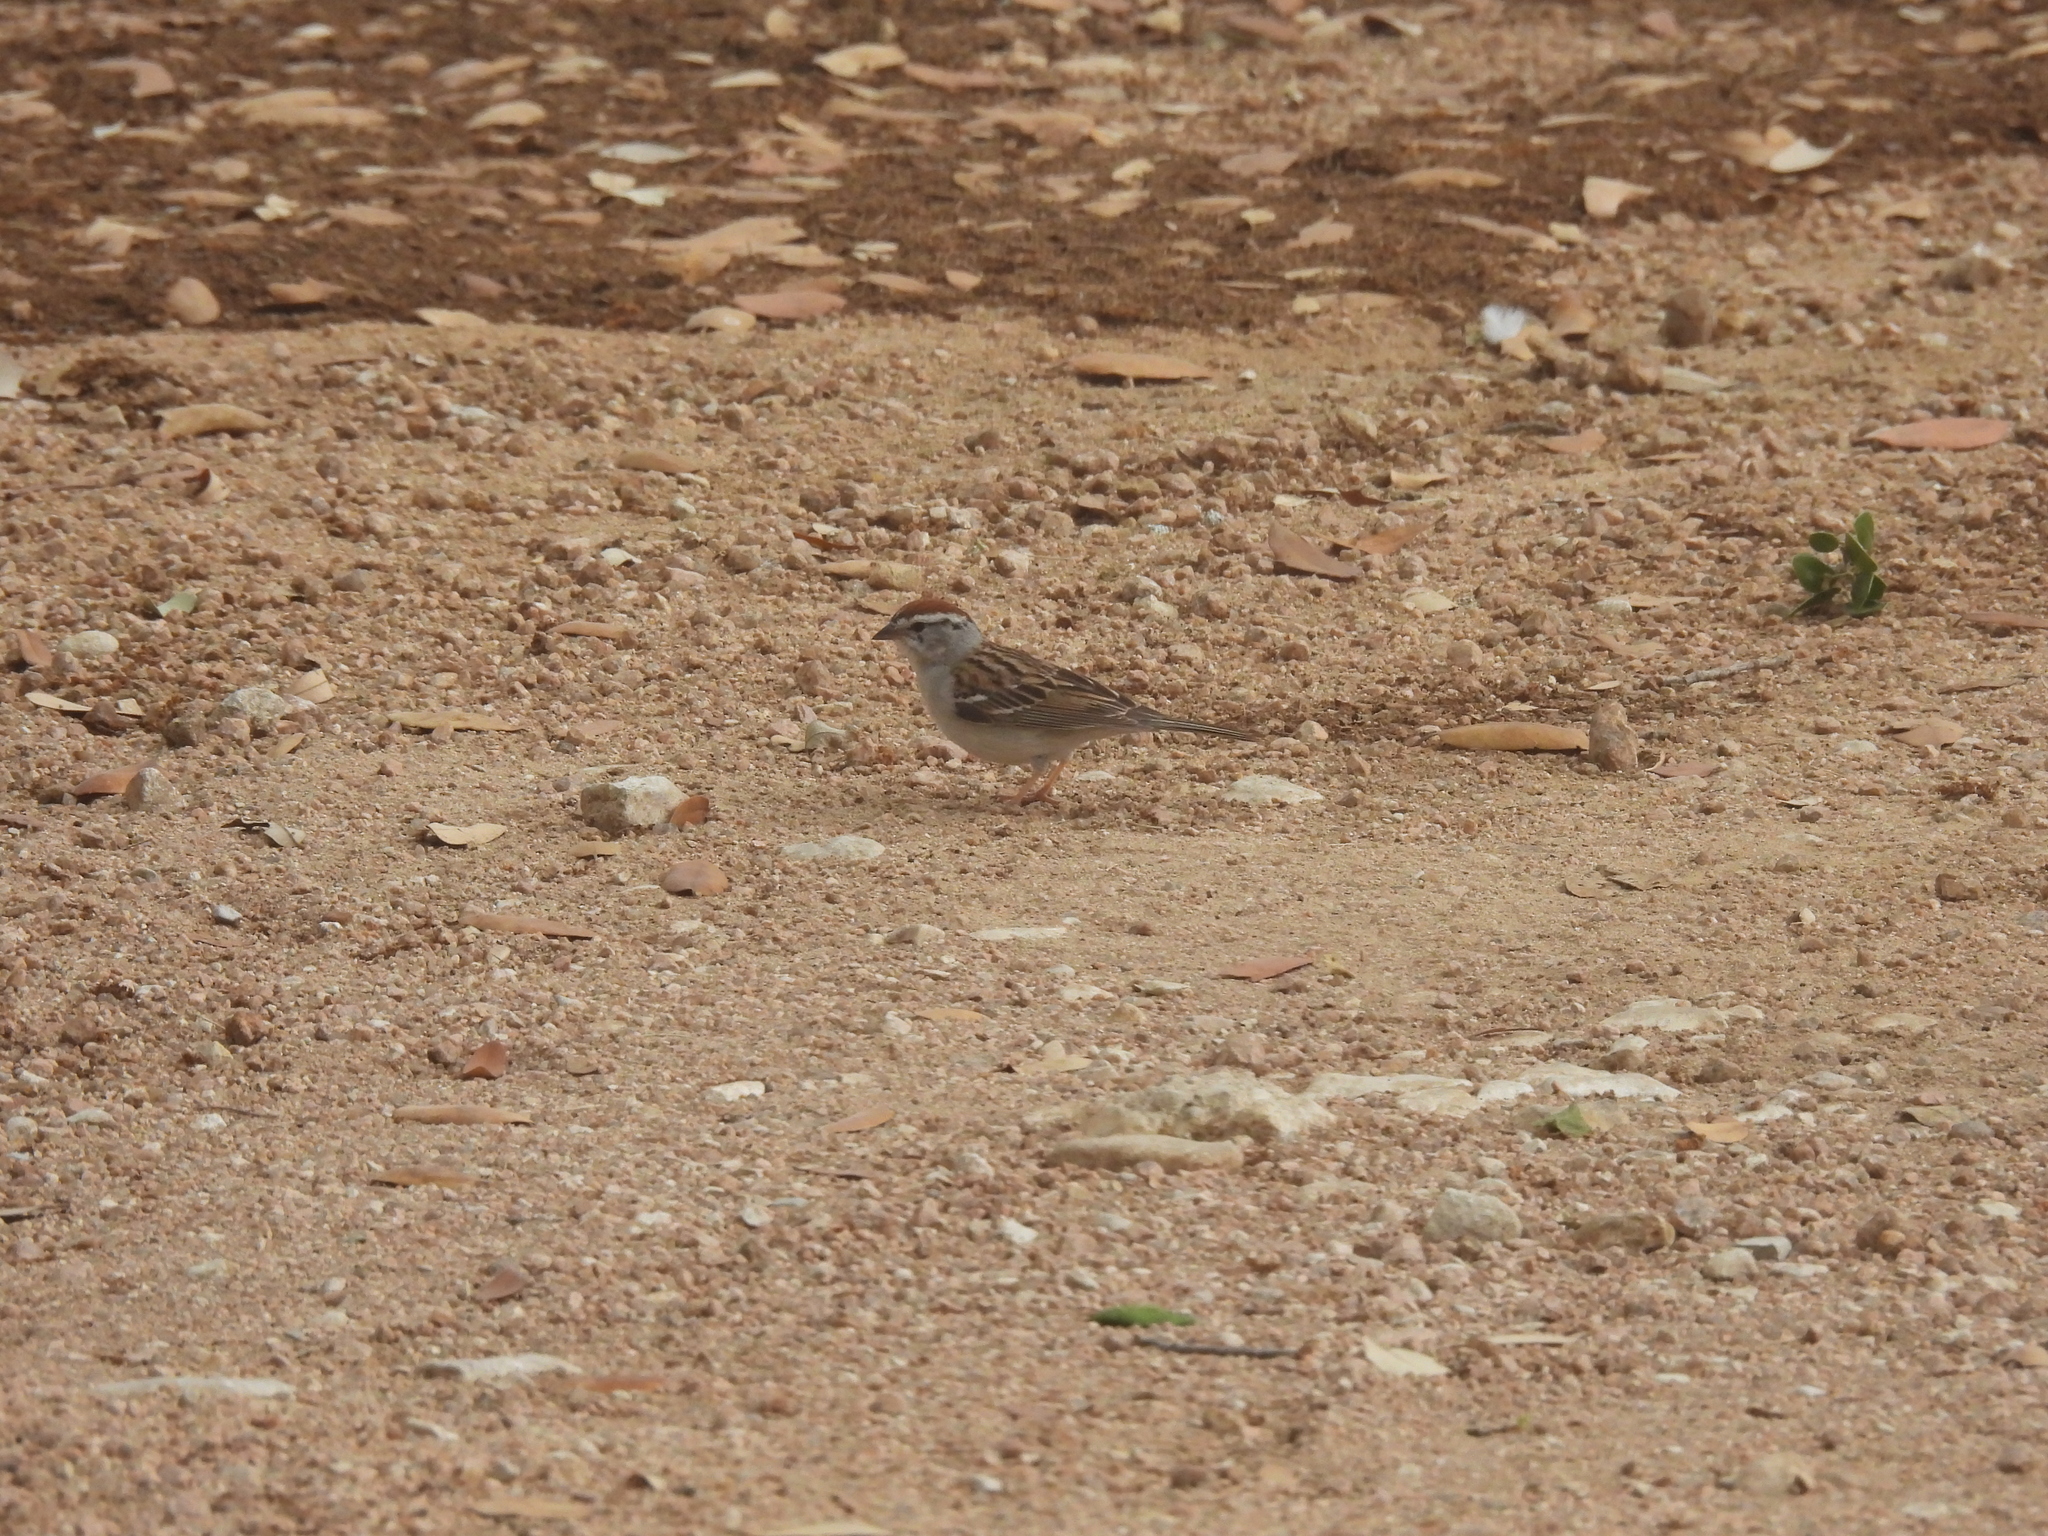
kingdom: Animalia
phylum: Chordata
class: Aves
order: Passeriformes
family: Passerellidae
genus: Spizella
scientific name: Spizella passerina
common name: Chipping sparrow
